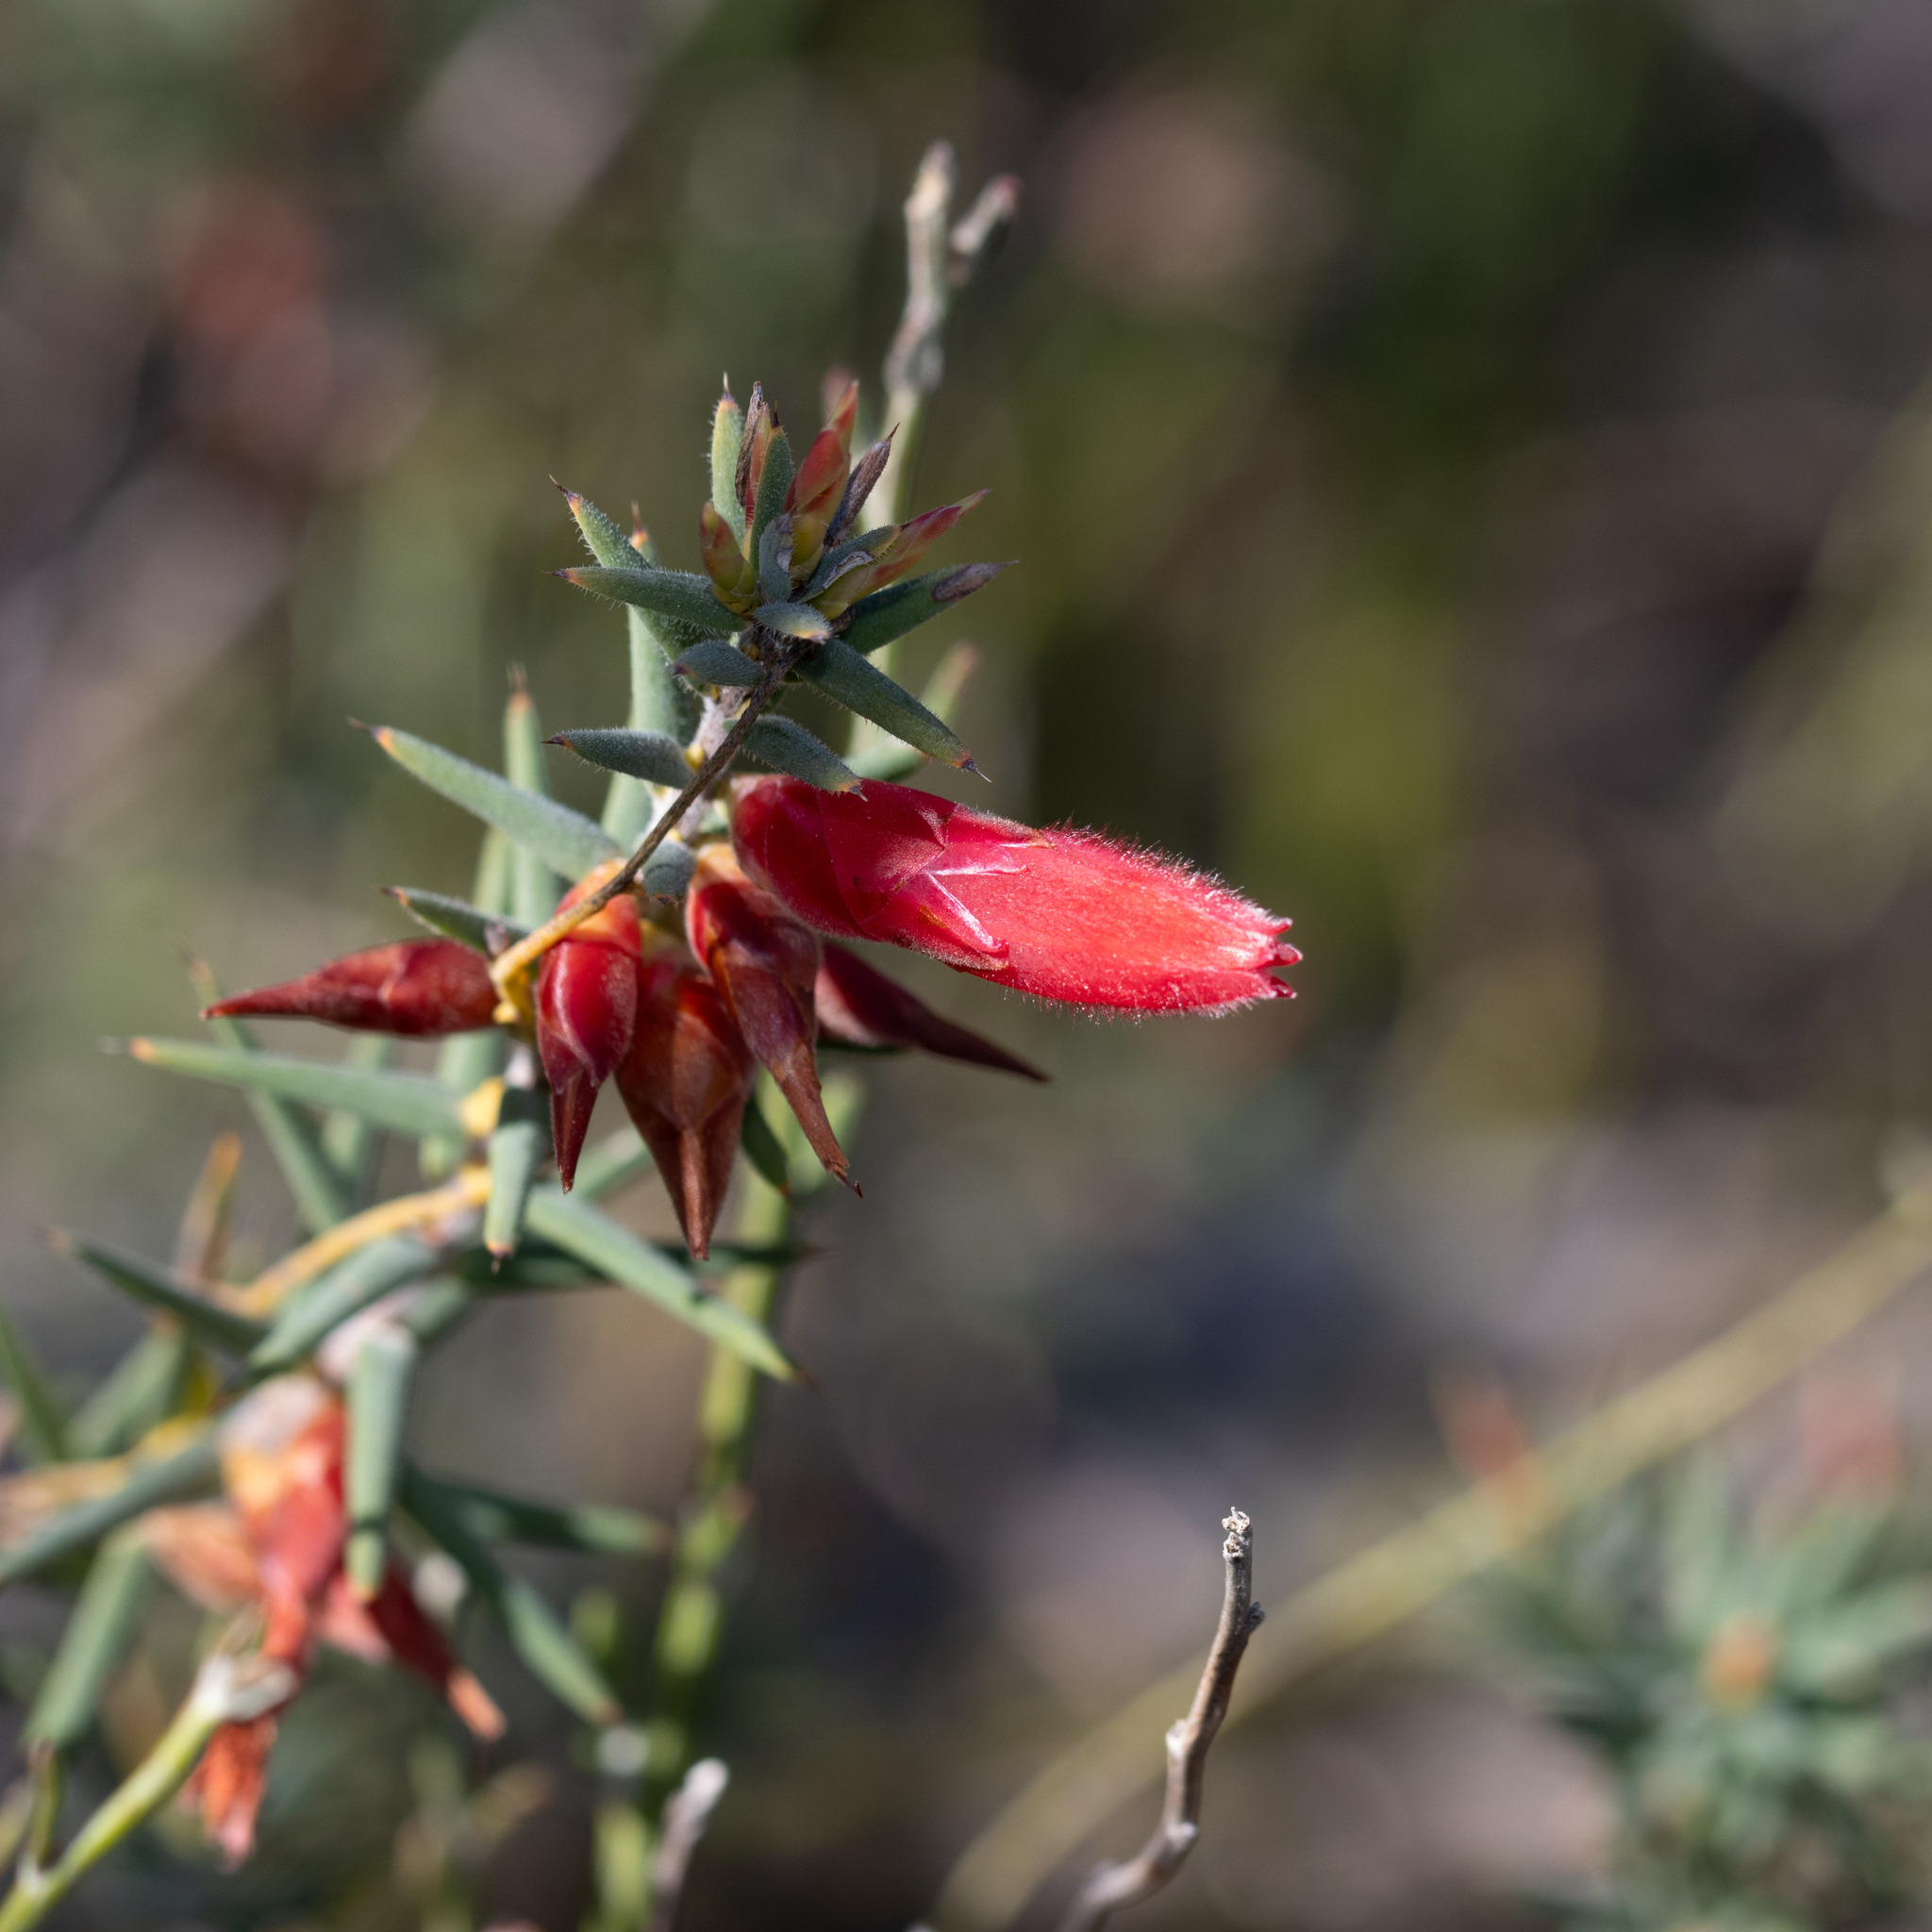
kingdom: Plantae
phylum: Tracheophyta
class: Magnoliopsida
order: Ericales
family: Ericaceae
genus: Stenanthera
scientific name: Stenanthera conostephioides
